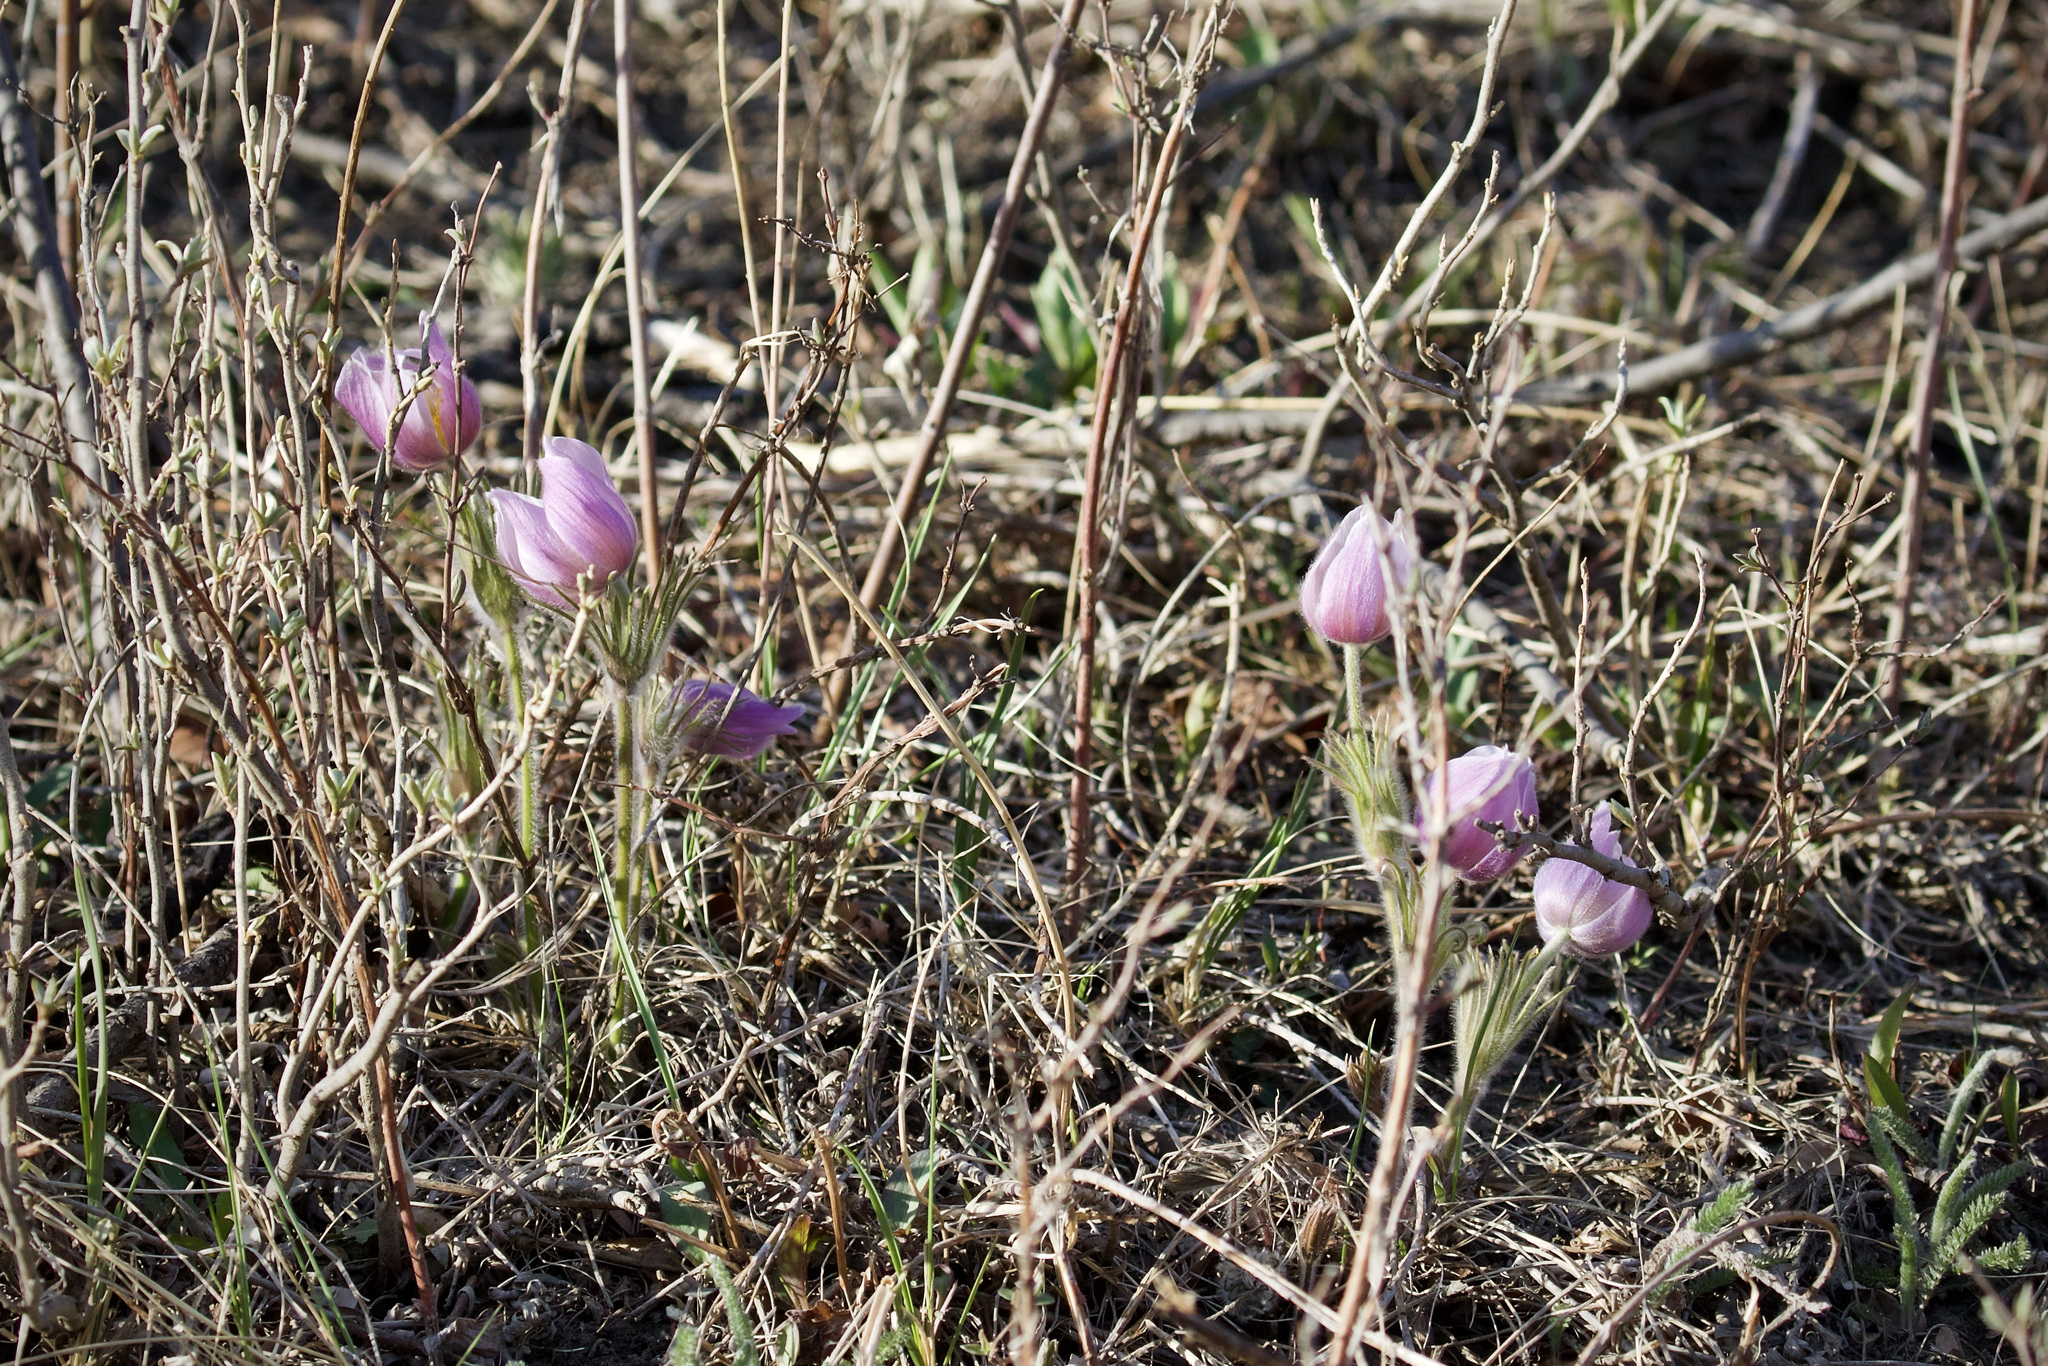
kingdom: Plantae
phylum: Tracheophyta
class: Magnoliopsida
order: Ranunculales
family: Ranunculaceae
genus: Pulsatilla
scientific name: Pulsatilla nuttalliana
